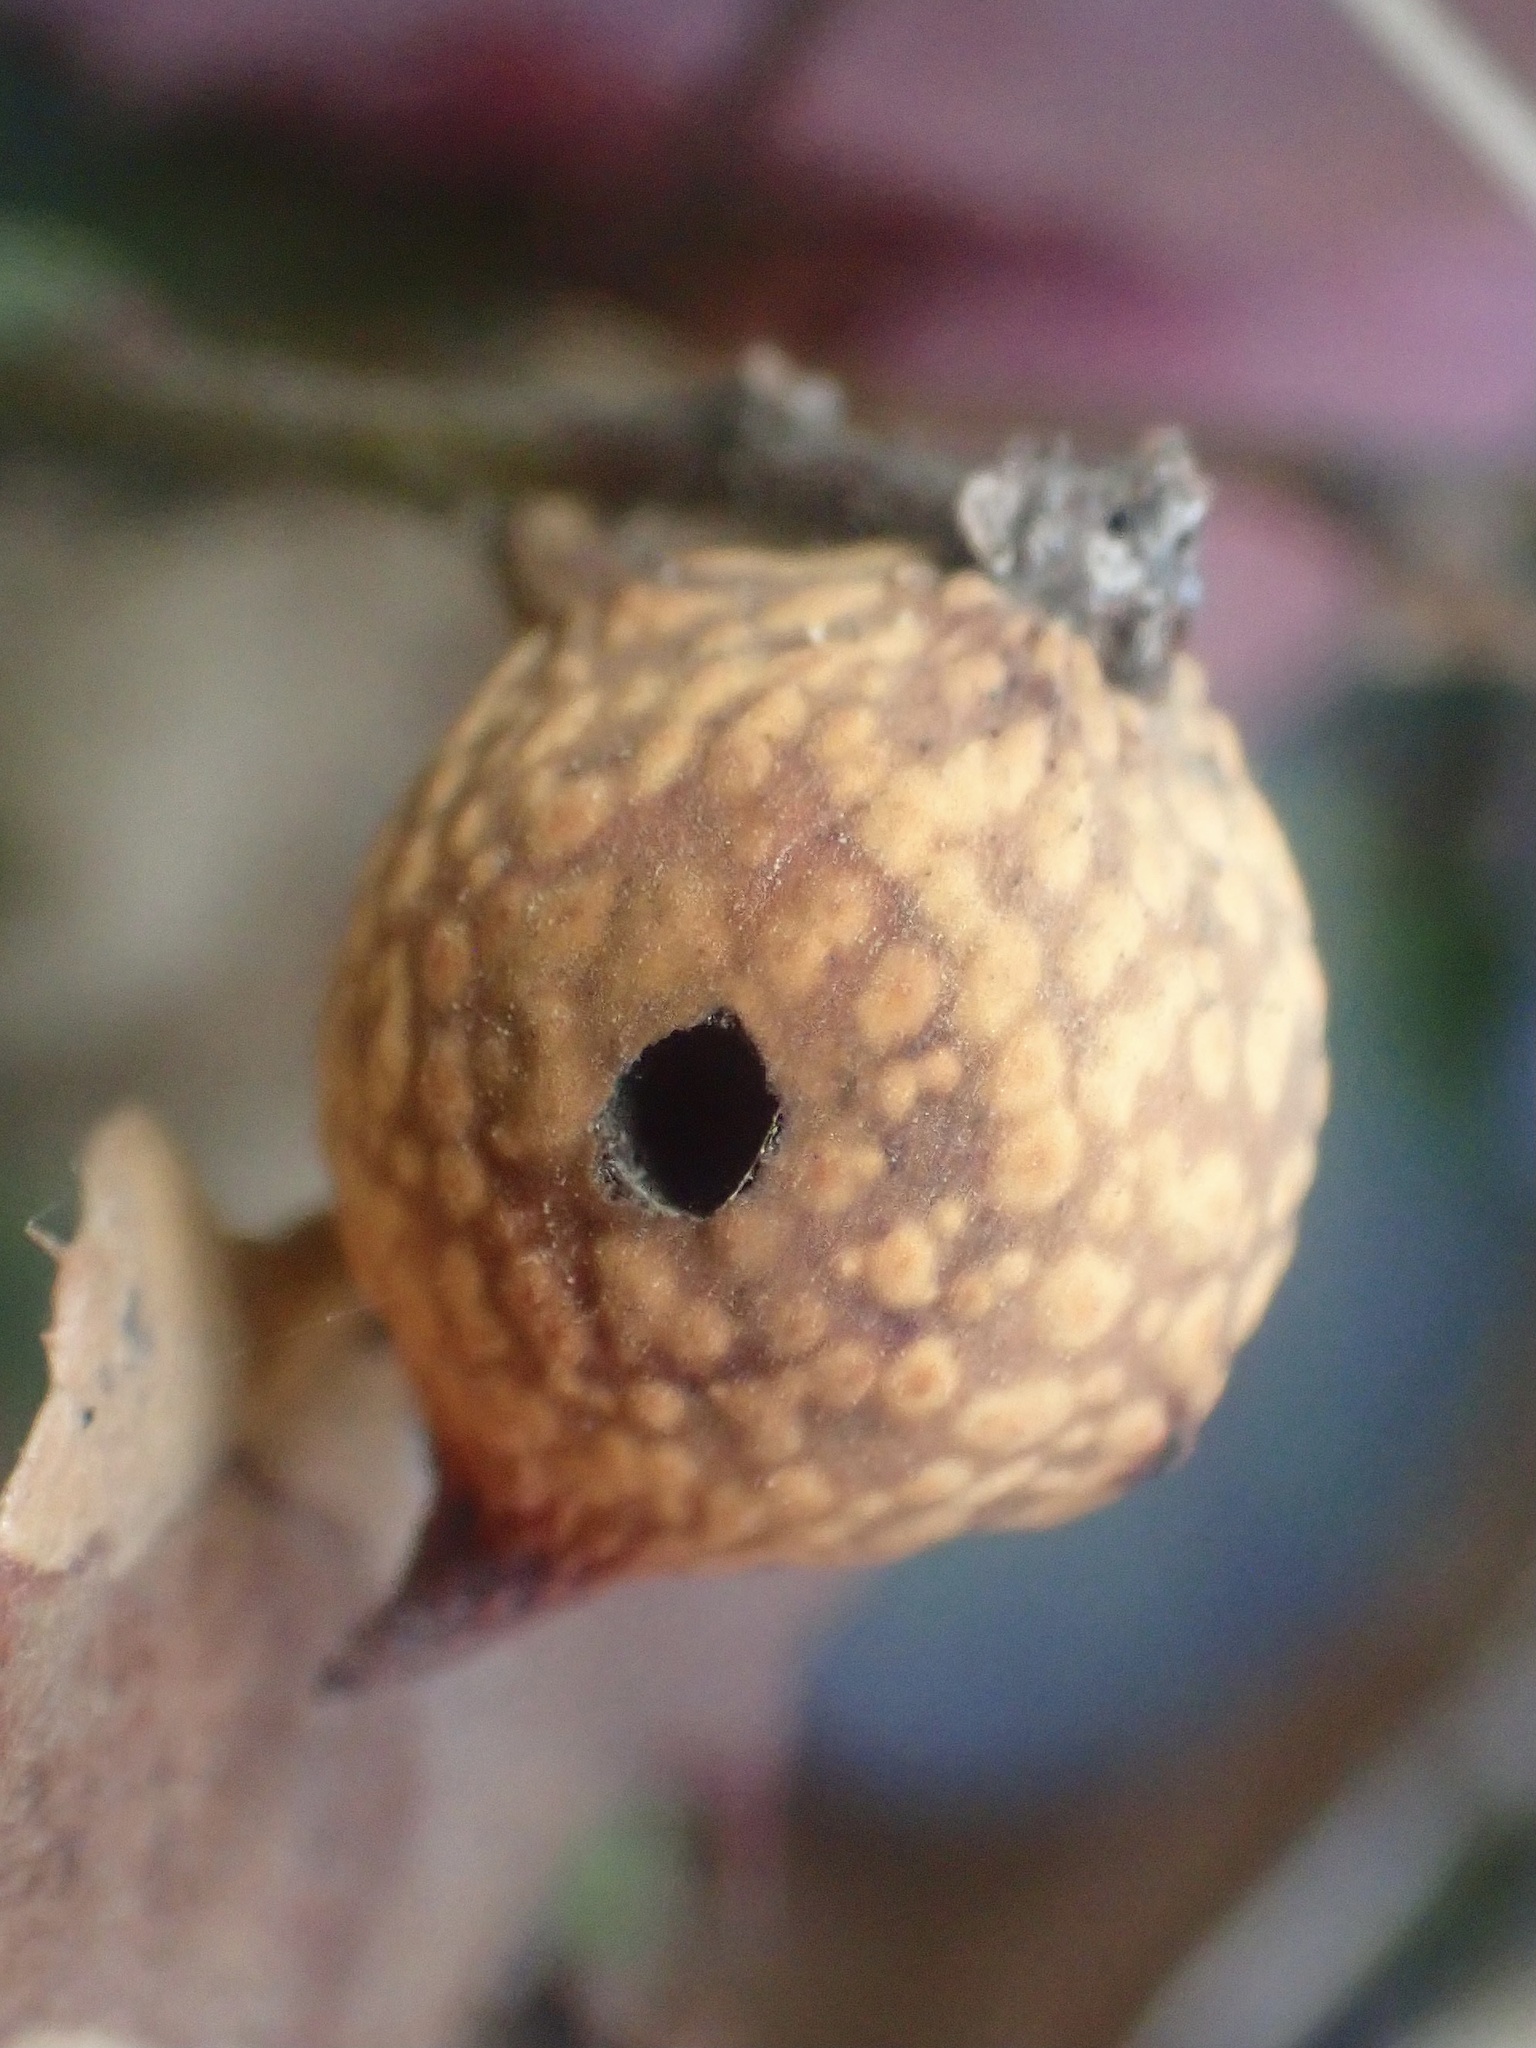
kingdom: Animalia
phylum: Arthropoda
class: Insecta
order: Hymenoptera
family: Cynipidae
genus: Burnettweldia
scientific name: Burnettweldia
